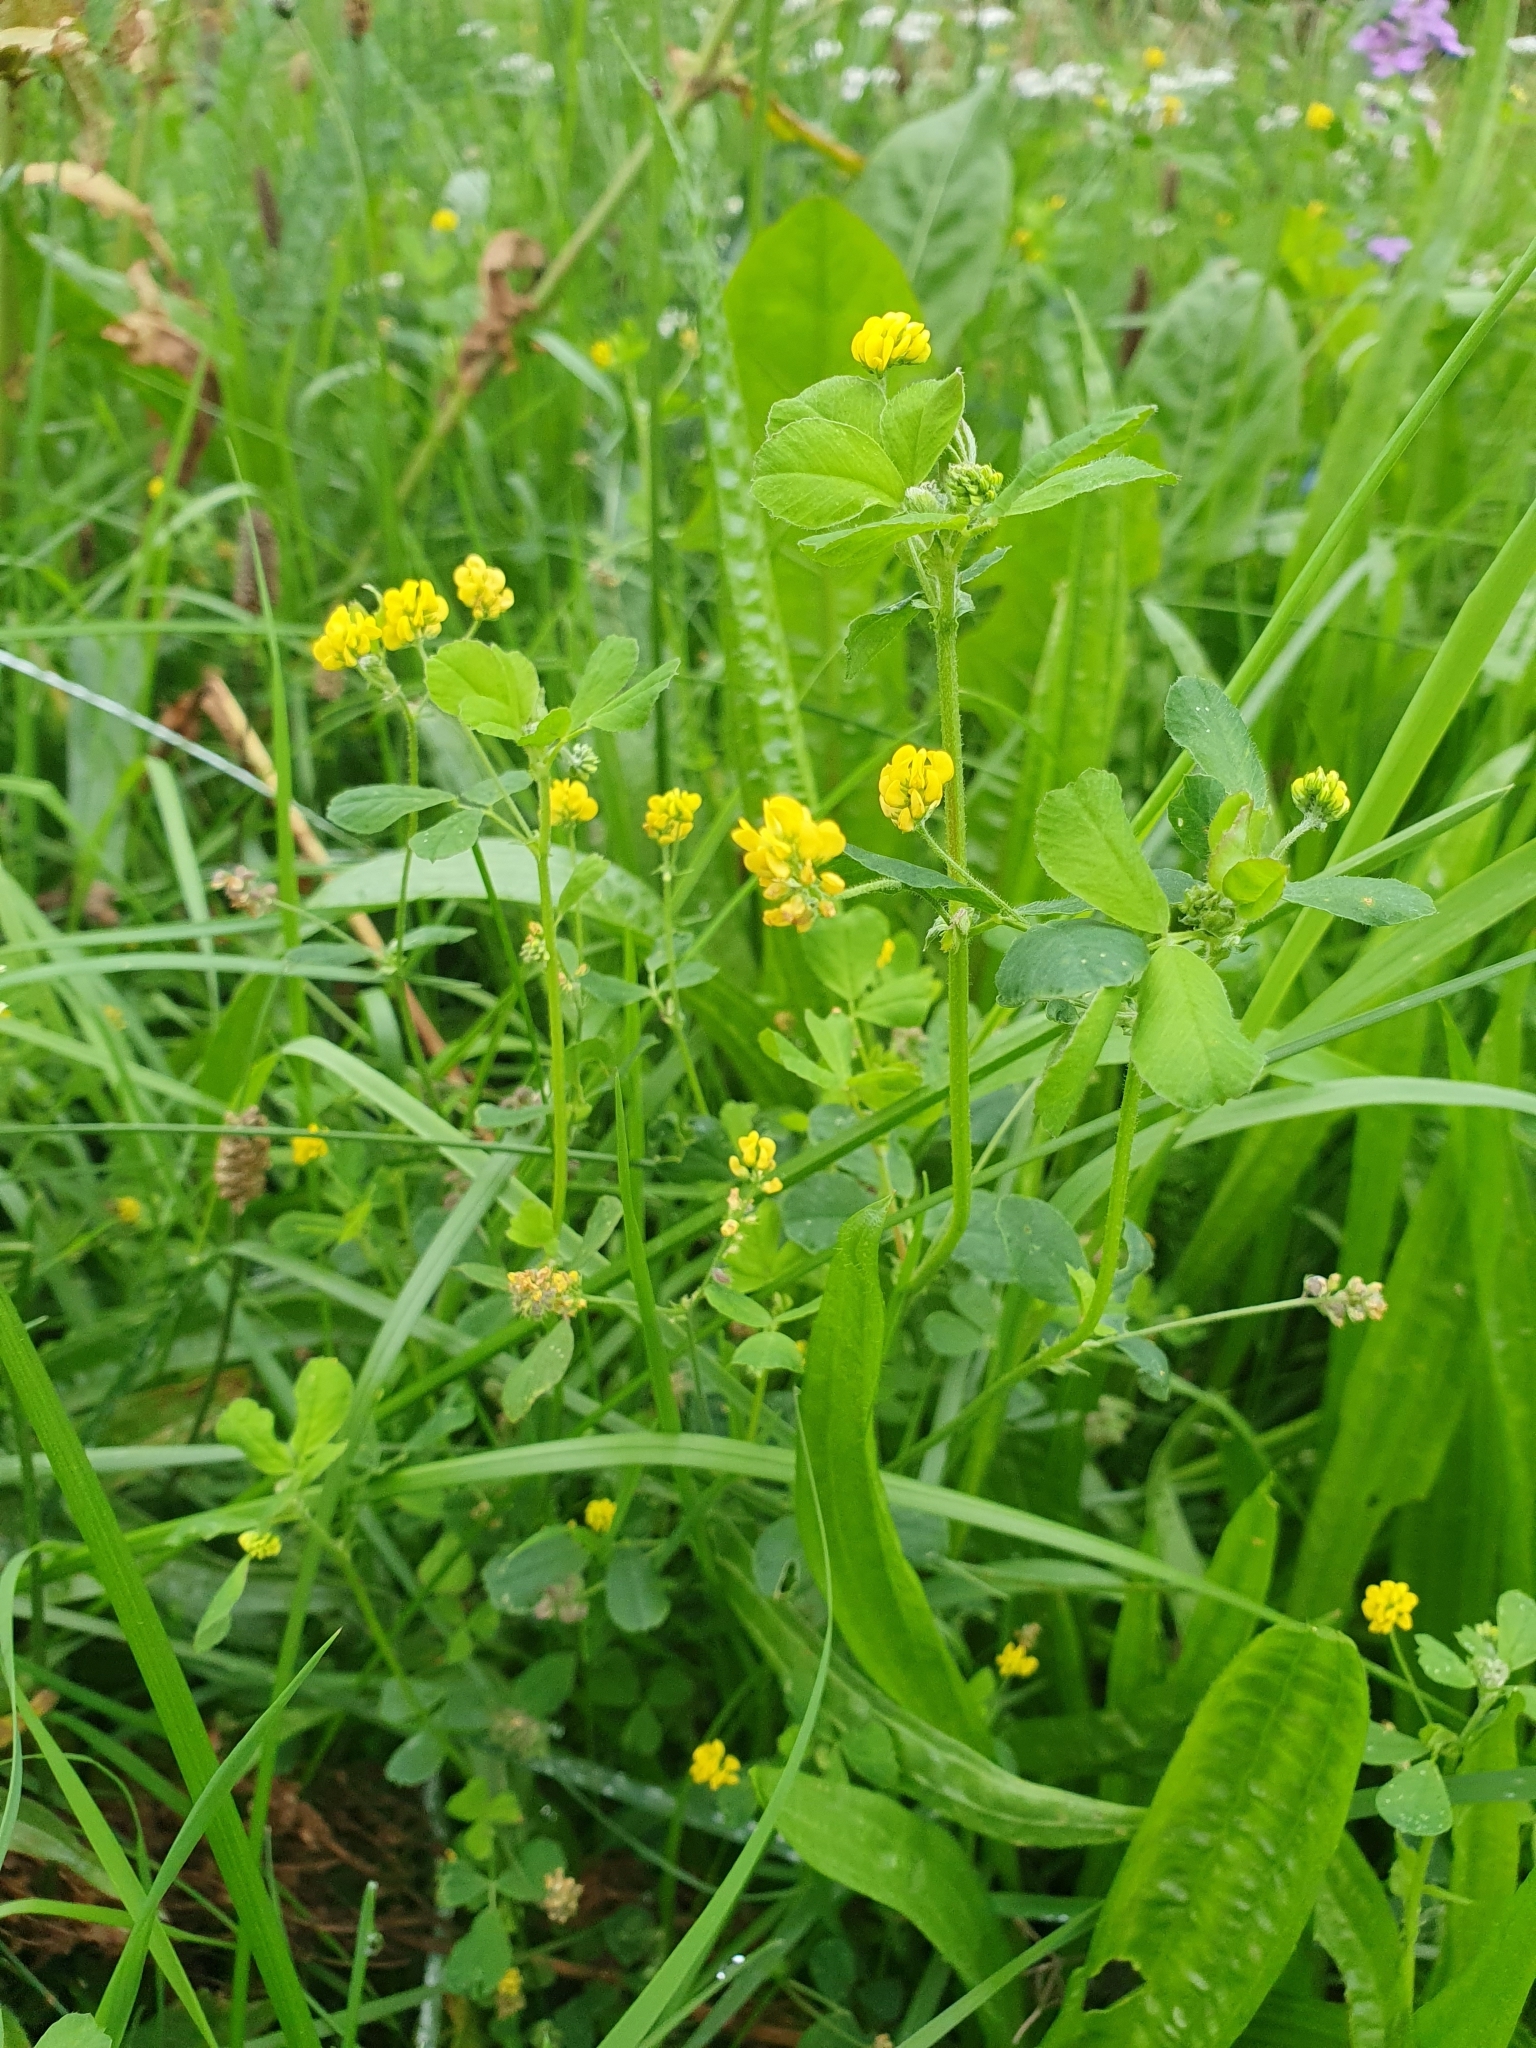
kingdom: Plantae
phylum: Tracheophyta
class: Magnoliopsida
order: Fabales
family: Fabaceae
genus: Medicago
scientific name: Medicago lupulina
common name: Black medick
